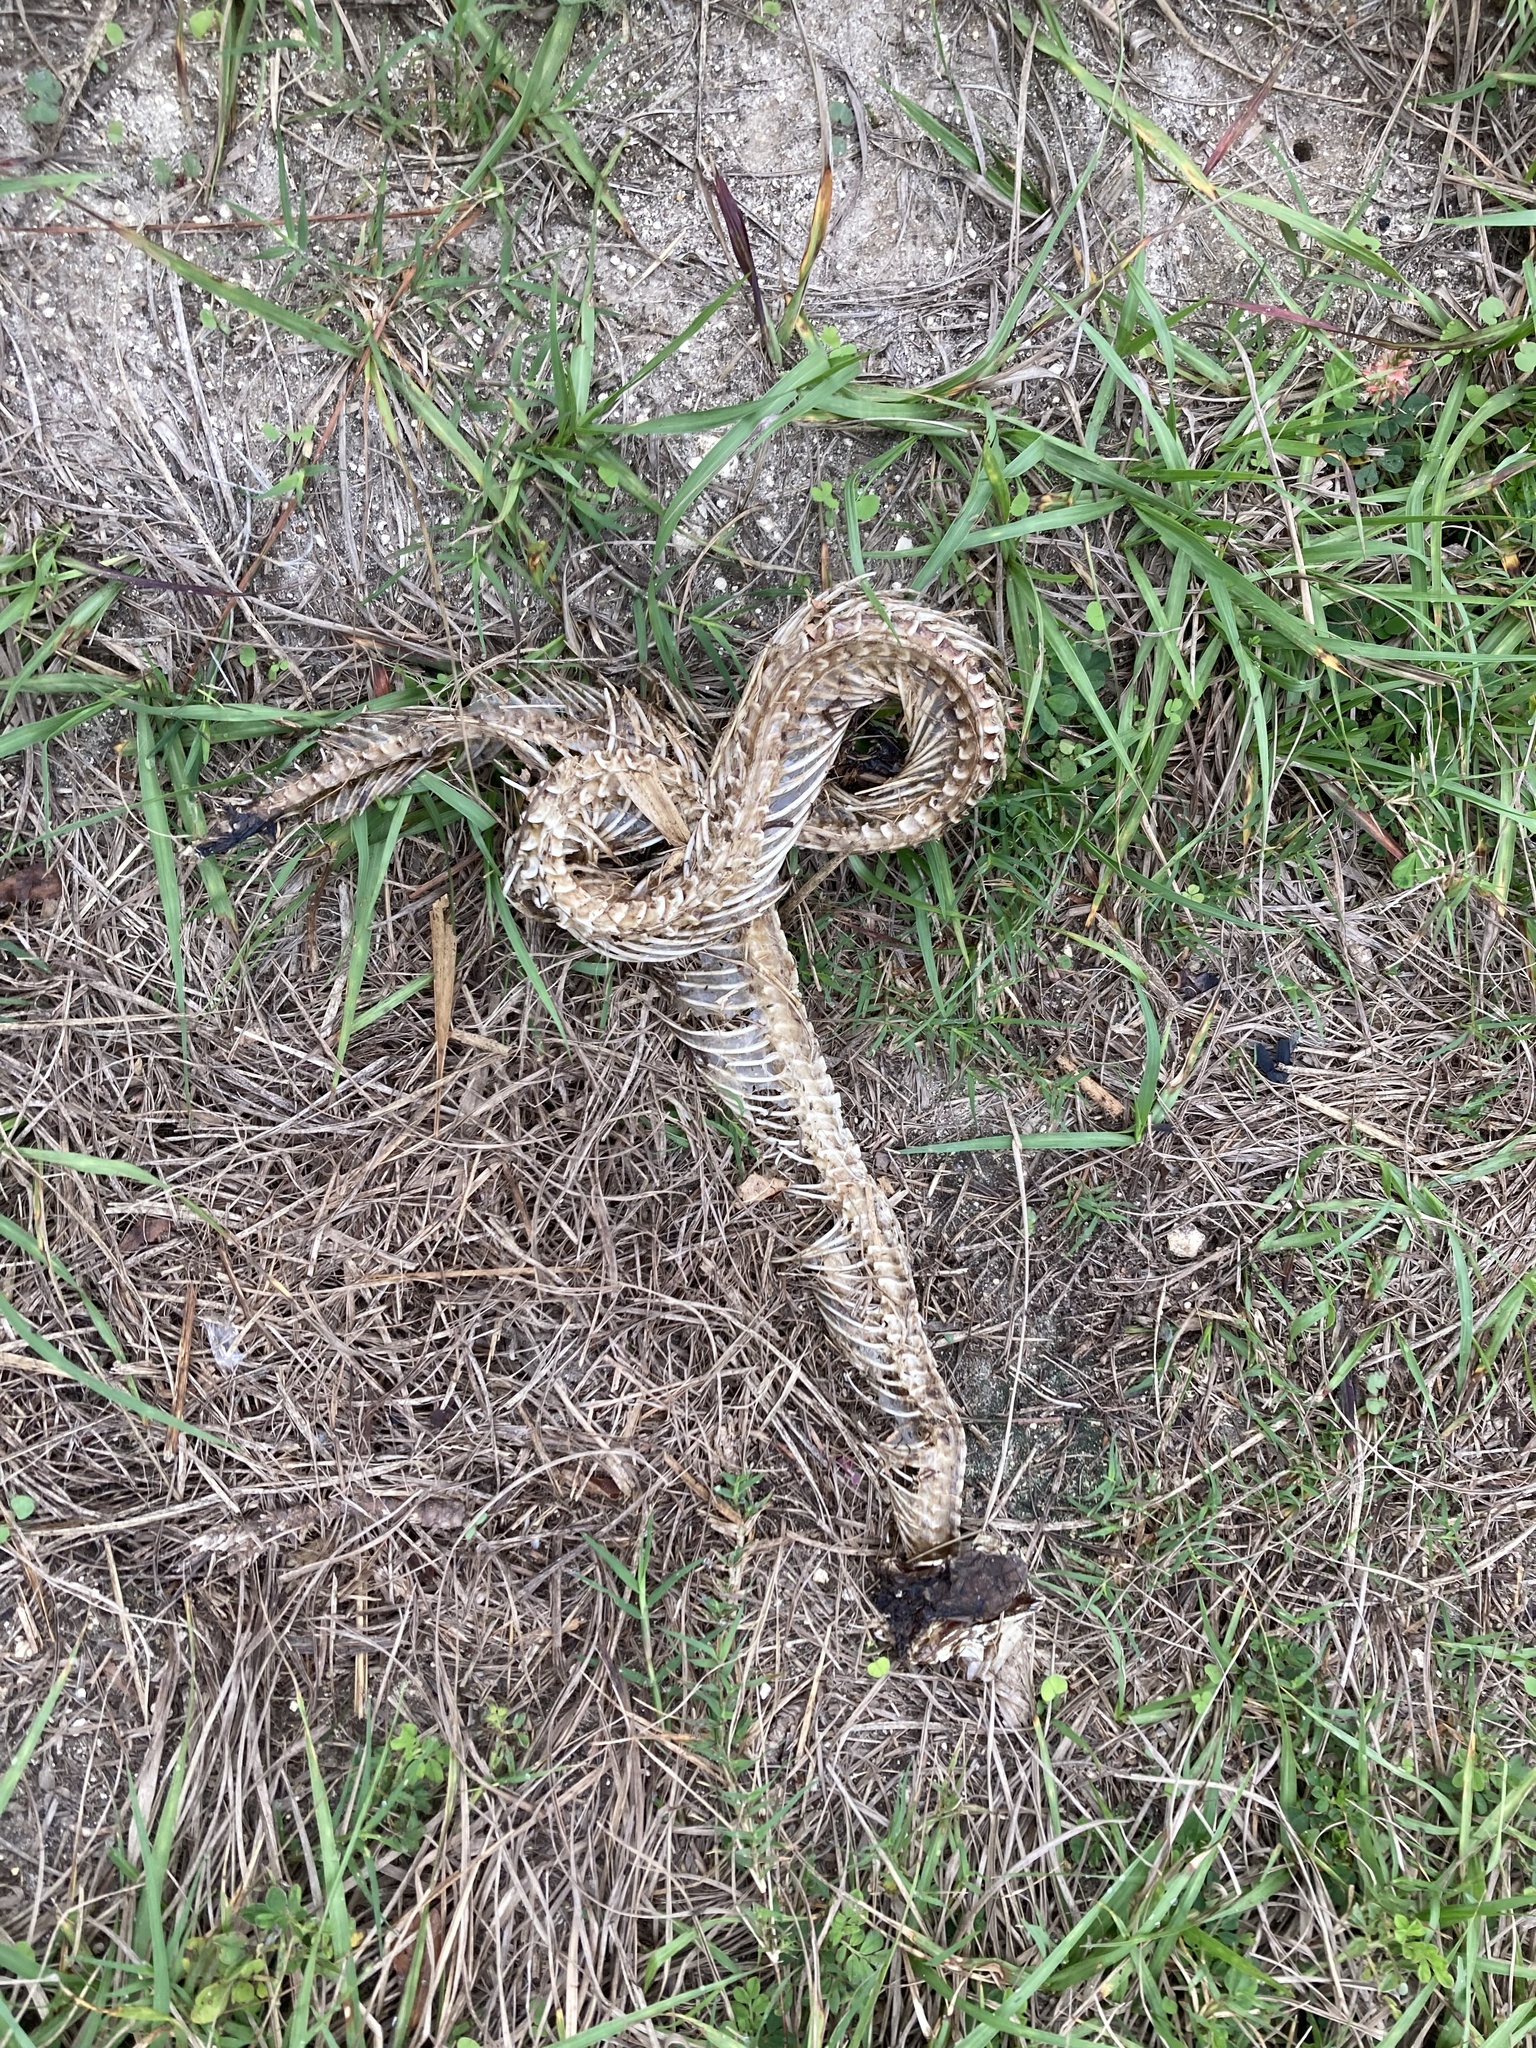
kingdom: Animalia
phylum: Chordata
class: Squamata
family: Viperidae
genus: Agkistrodon
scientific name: Agkistrodon conanti
